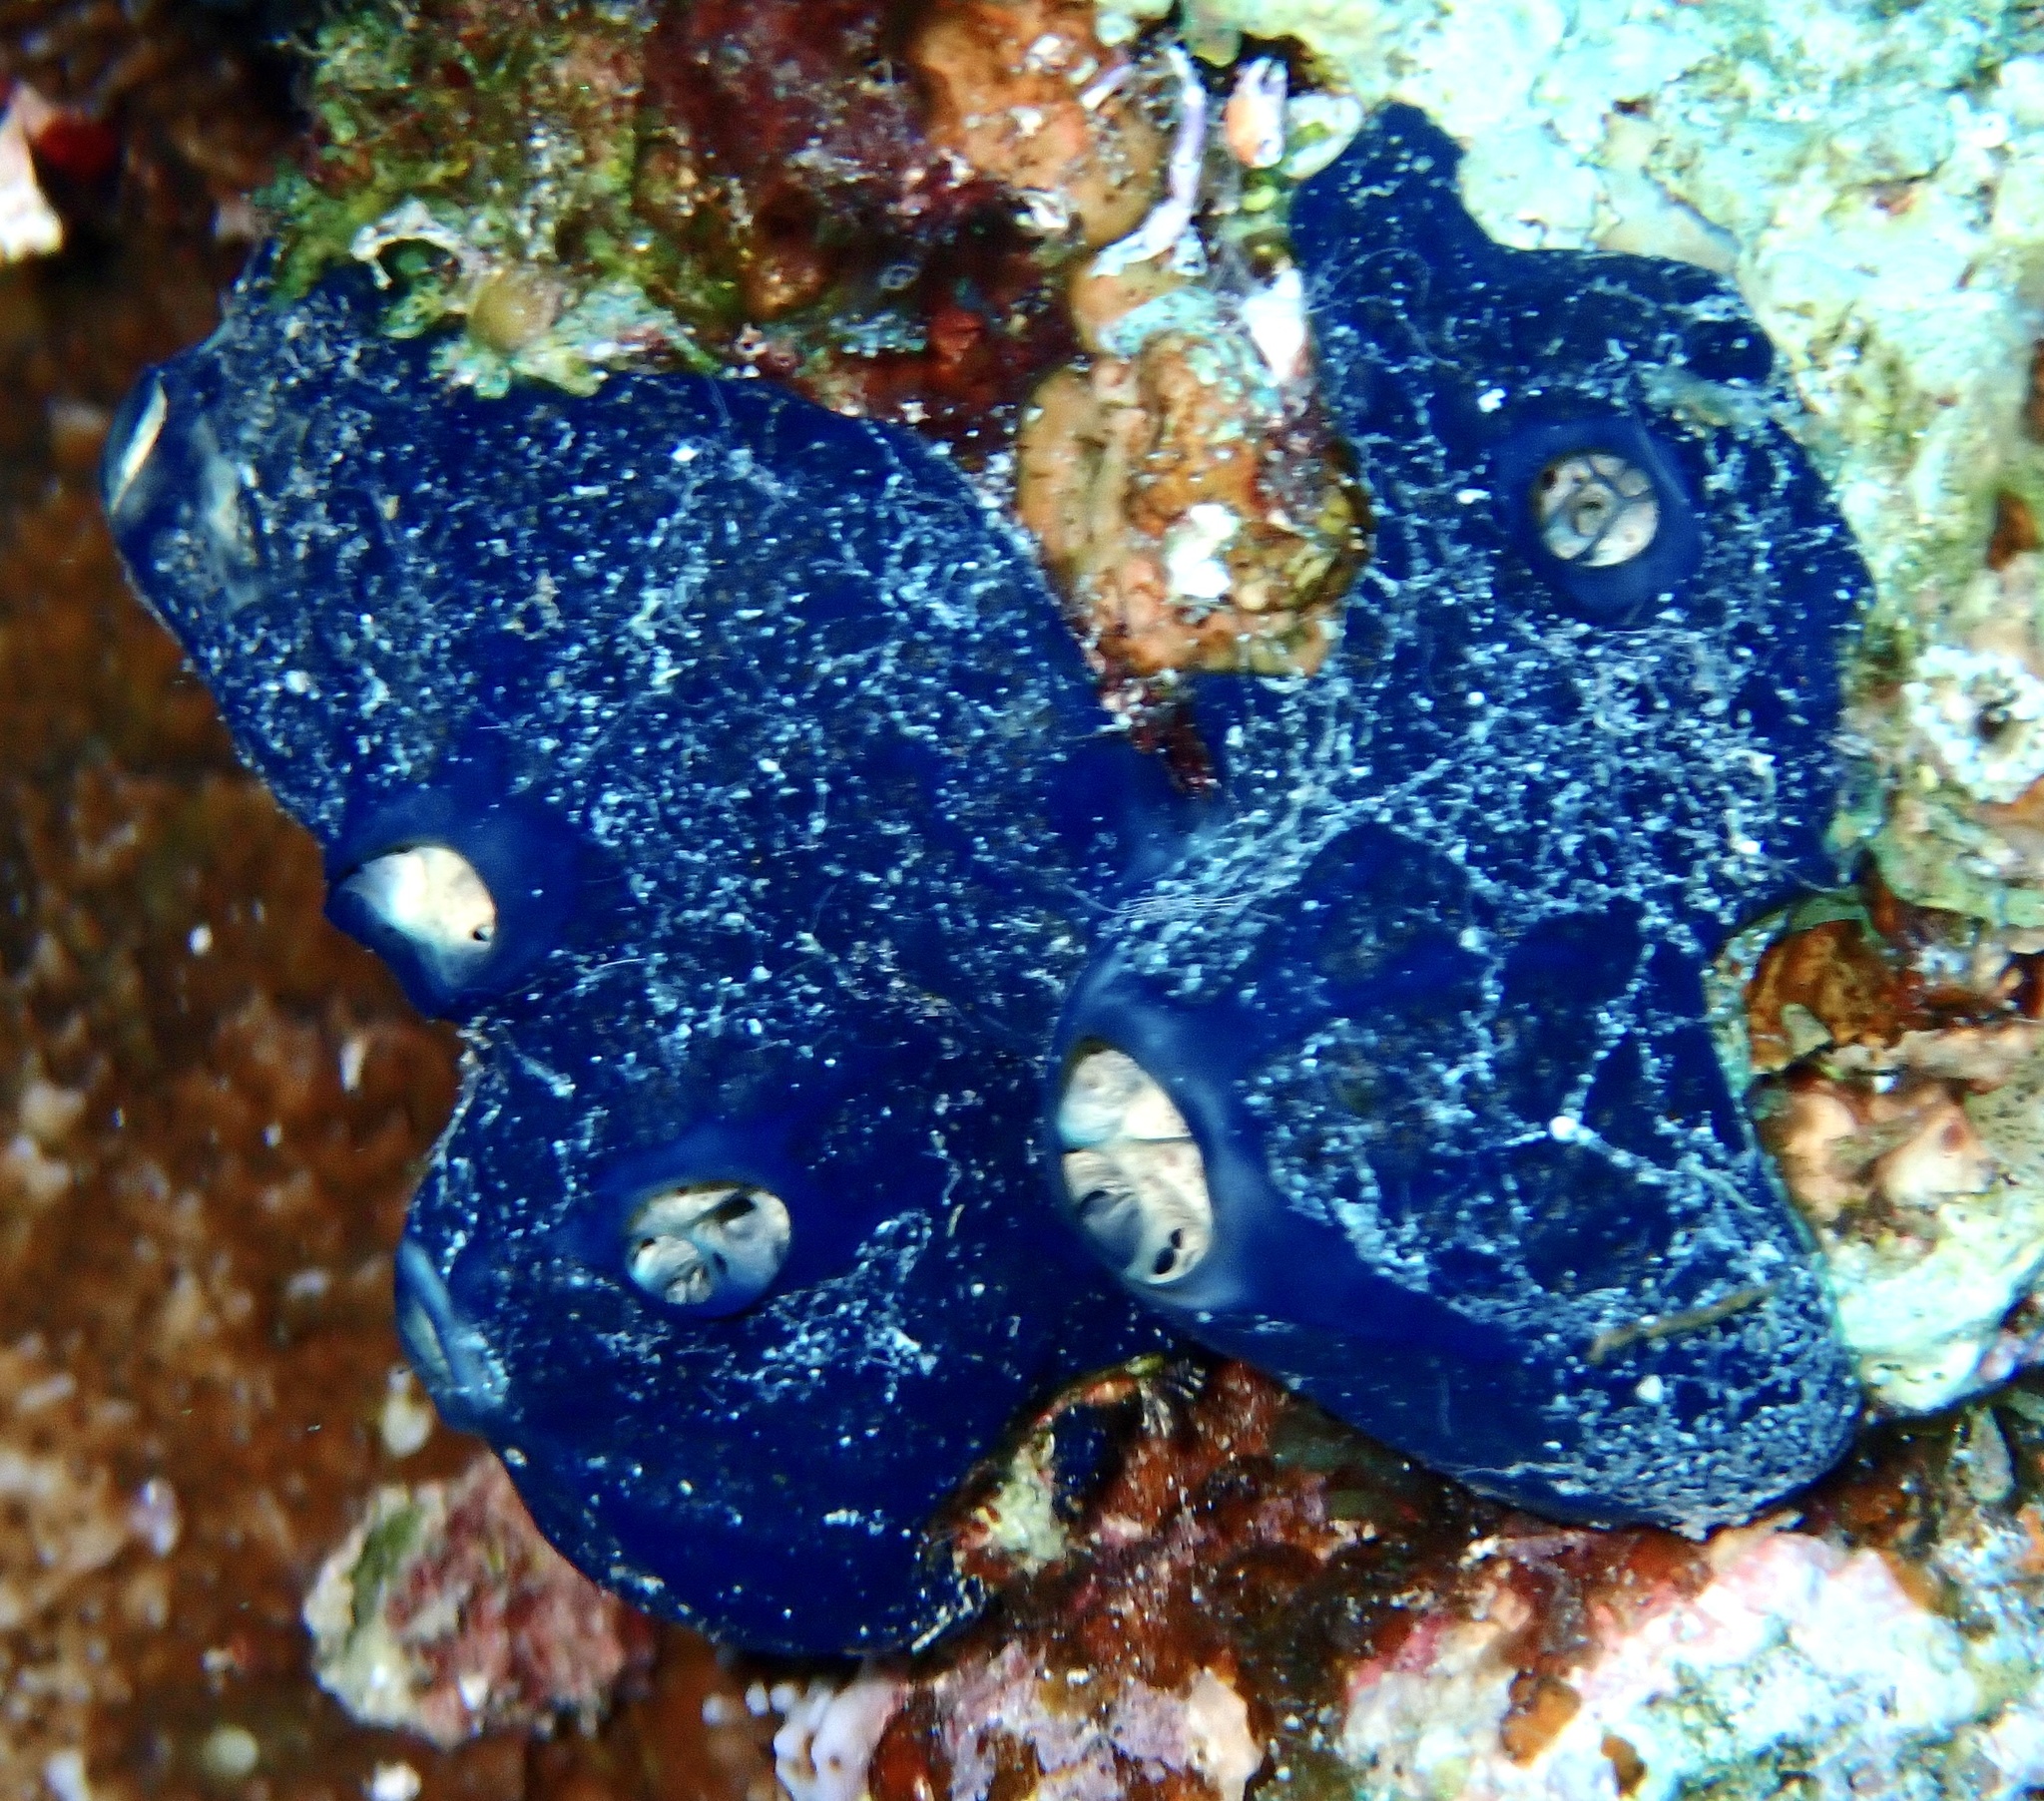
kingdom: Animalia
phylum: Porifera
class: Demospongiae
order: Poecilosclerida
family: Hymedesmiidae
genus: Hemimycale
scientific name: Hemimycale arabica
